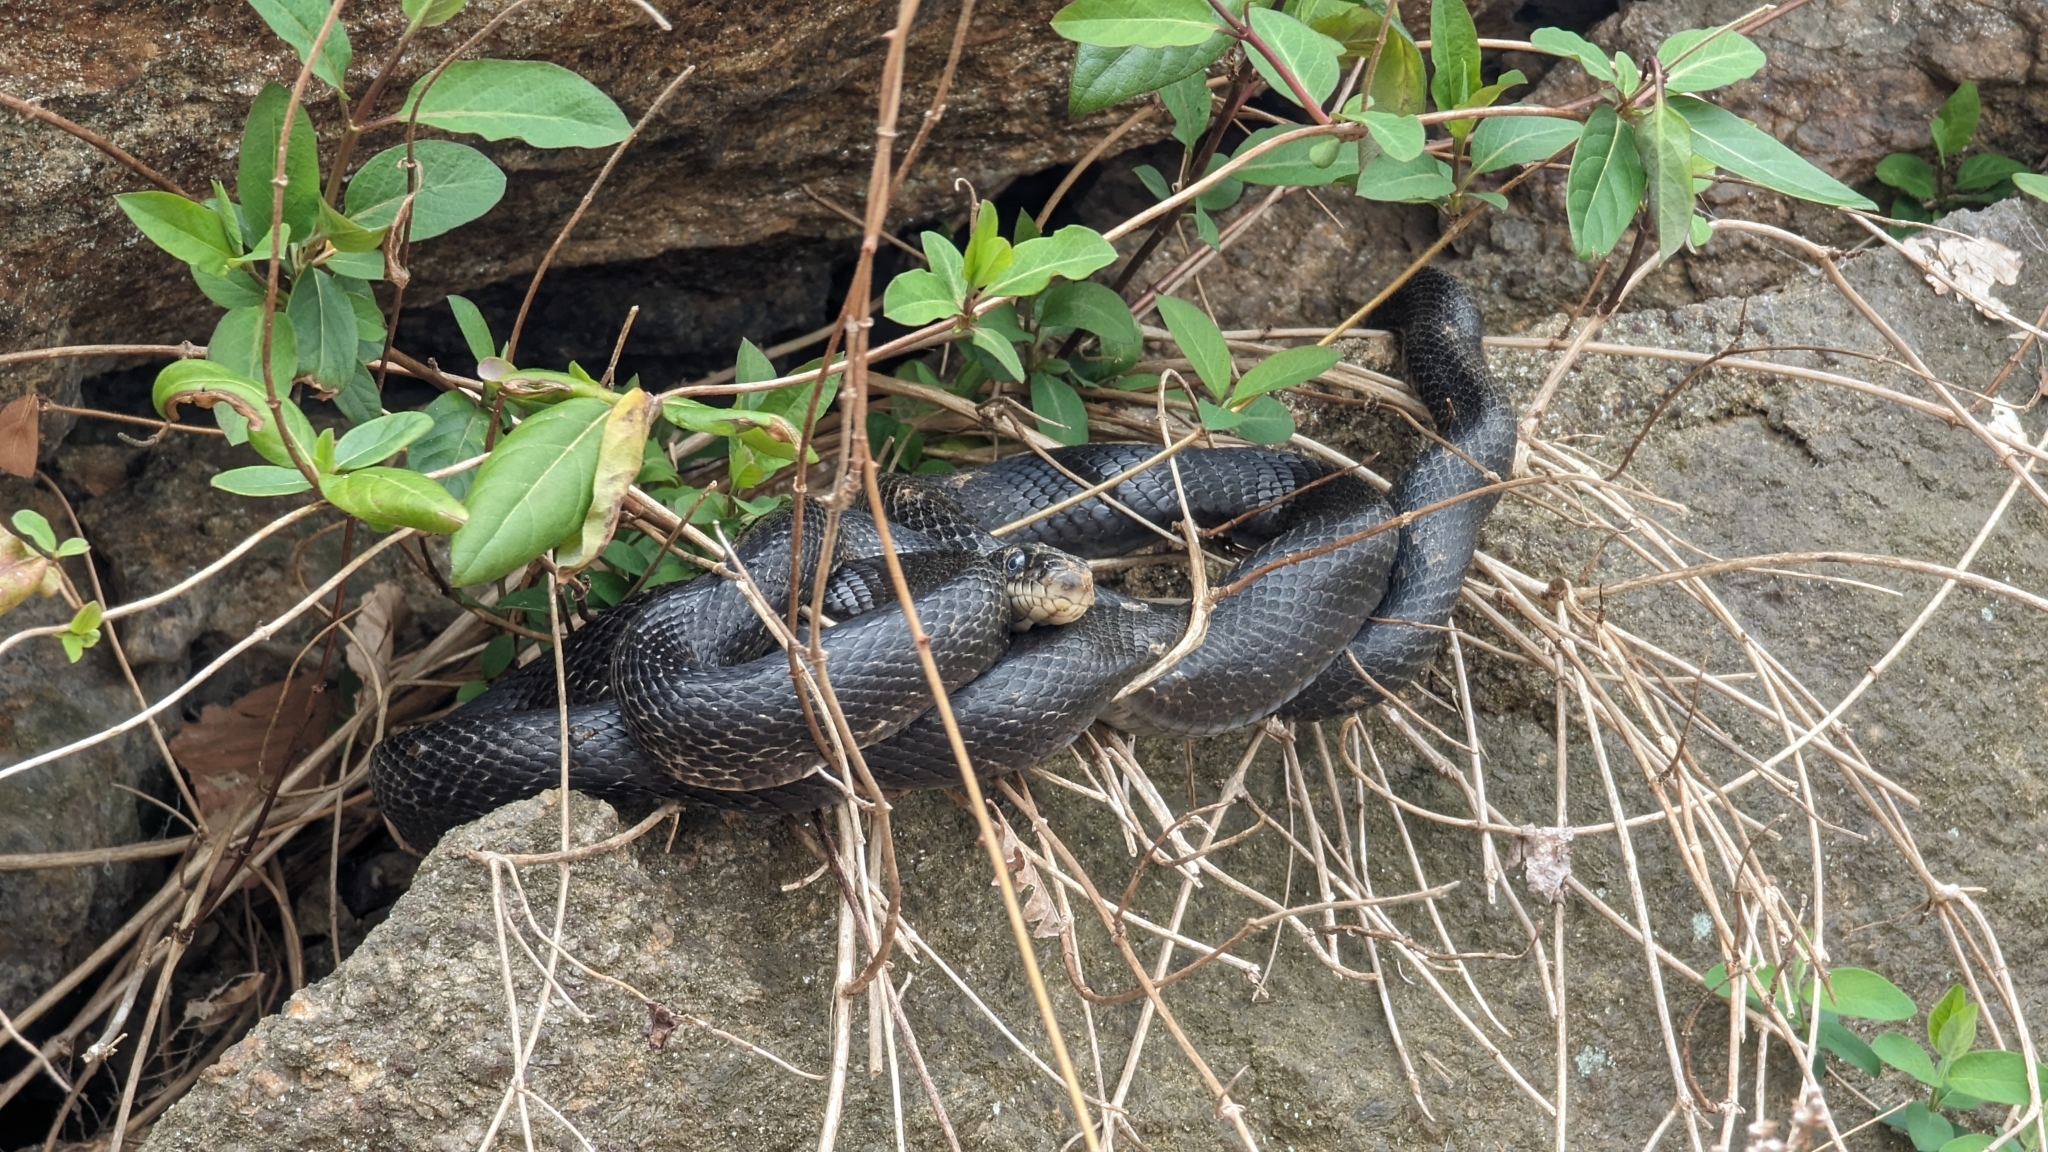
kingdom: Animalia
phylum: Chordata
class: Squamata
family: Colubridae
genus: Pantherophis
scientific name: Pantherophis alleghaniensis
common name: Eastern rat snake
